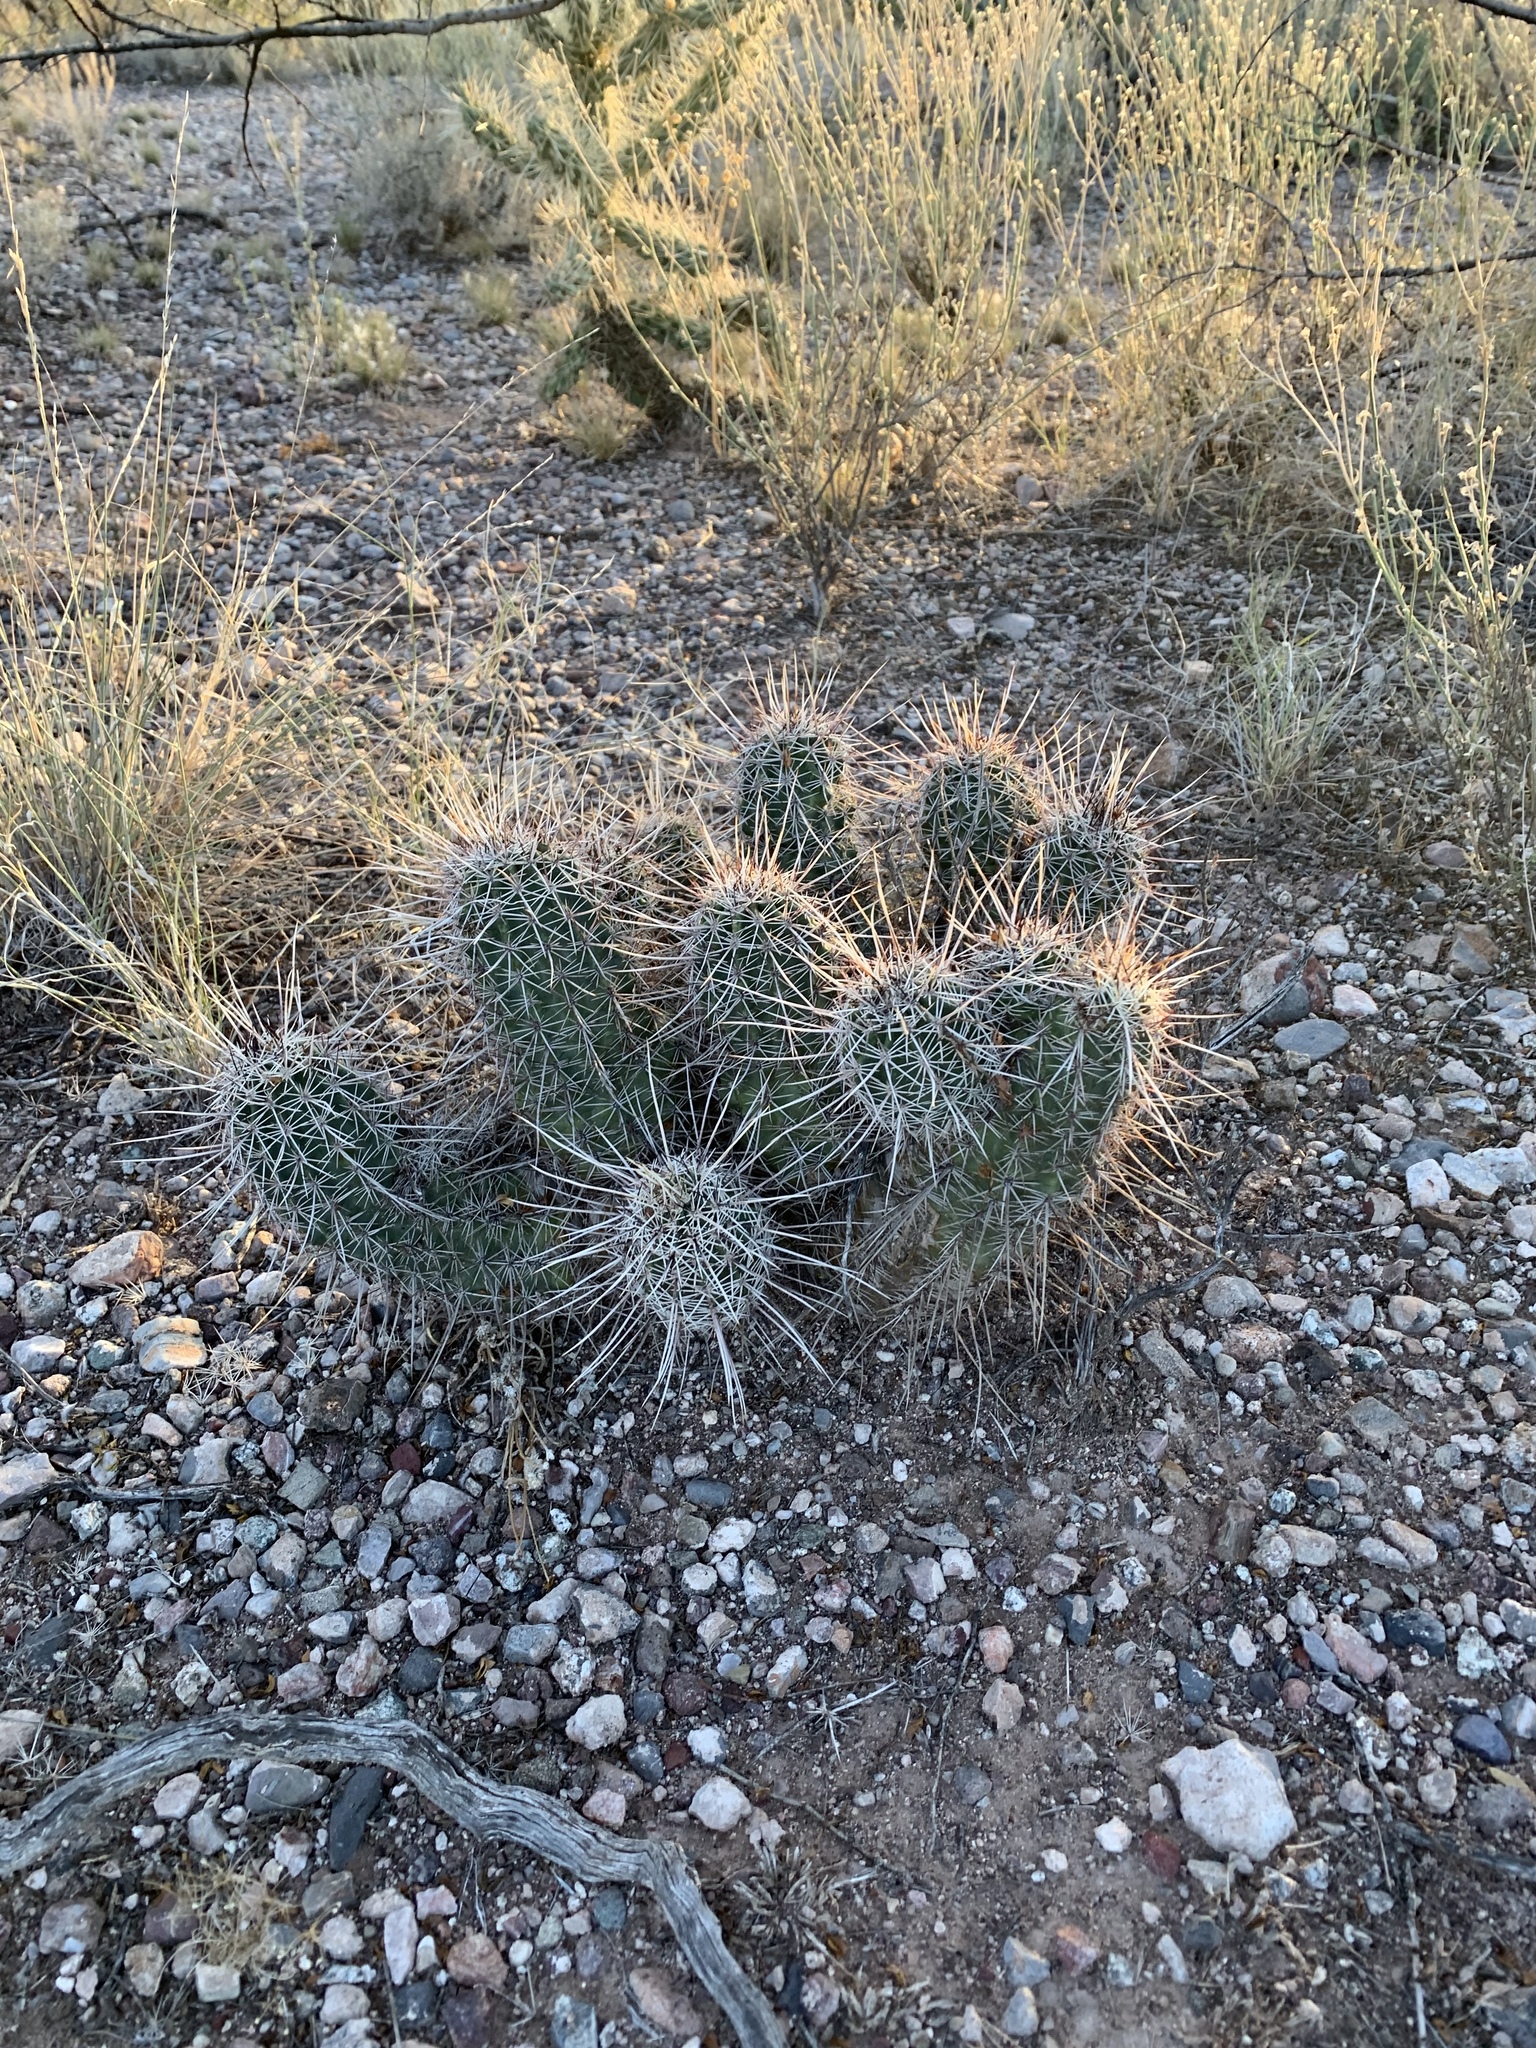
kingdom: Plantae
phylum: Tracheophyta
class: Magnoliopsida
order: Caryophyllales
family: Cactaceae
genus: Echinocereus
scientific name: Echinocereus fasciculatus
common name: Bundle hedgehog
